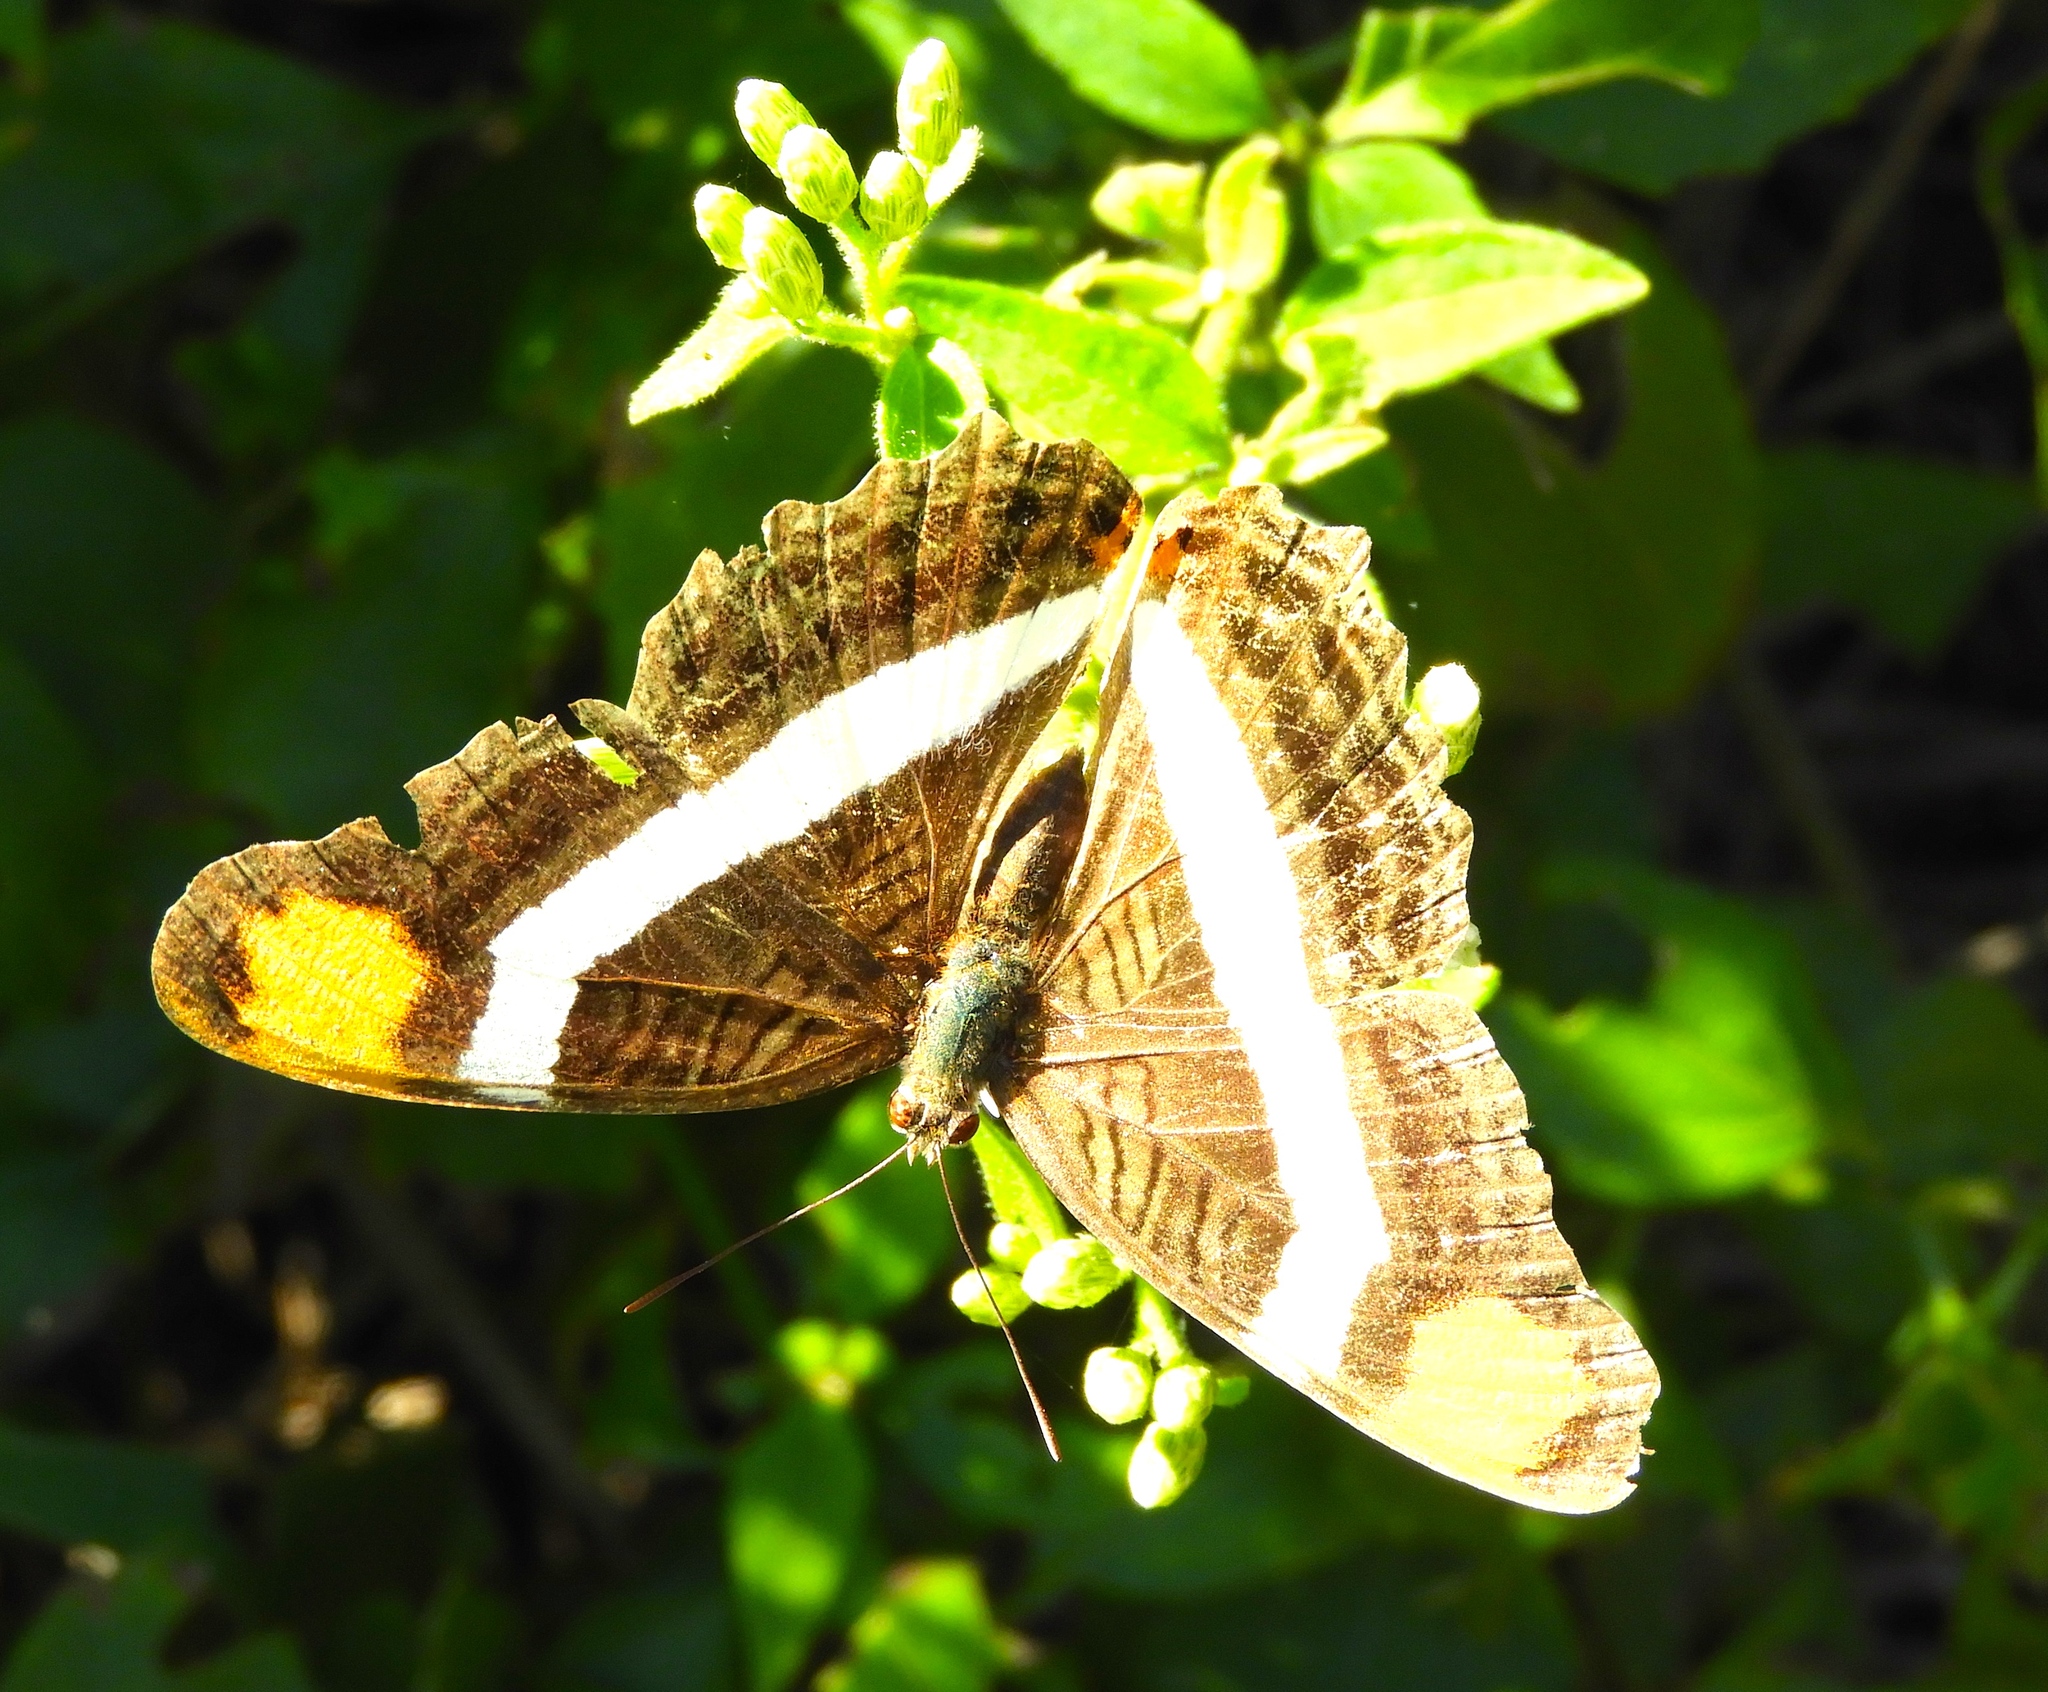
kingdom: Animalia
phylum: Arthropoda
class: Insecta
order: Lepidoptera
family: Nymphalidae
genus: Limenitis
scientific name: Limenitis fessonia
